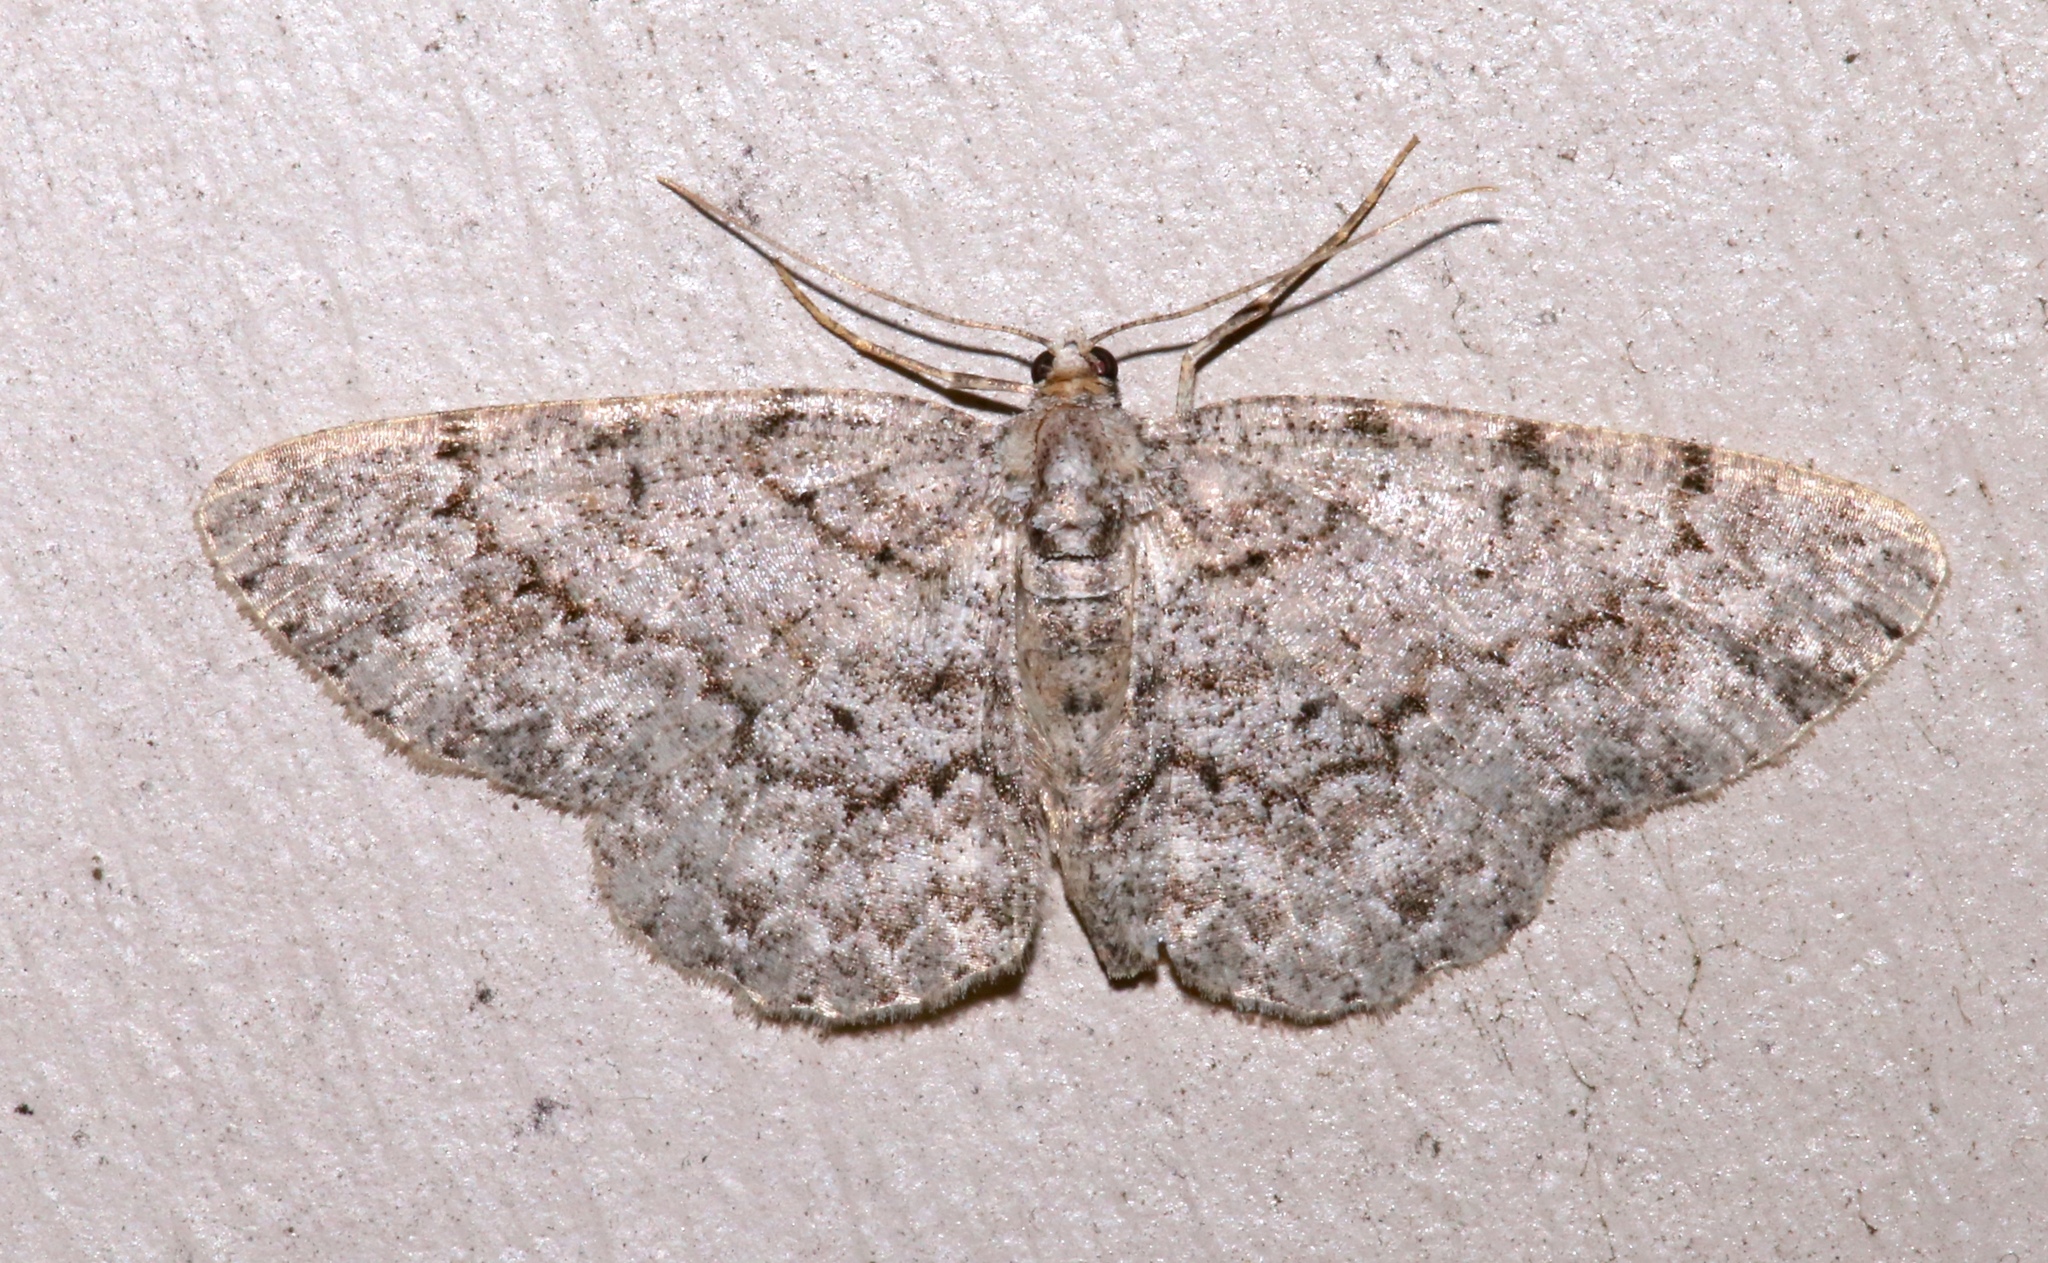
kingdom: Animalia
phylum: Arthropoda
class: Insecta
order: Lepidoptera
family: Geometridae
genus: Protoboarmia
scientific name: Protoboarmia porcelaria
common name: Porcelain gray
